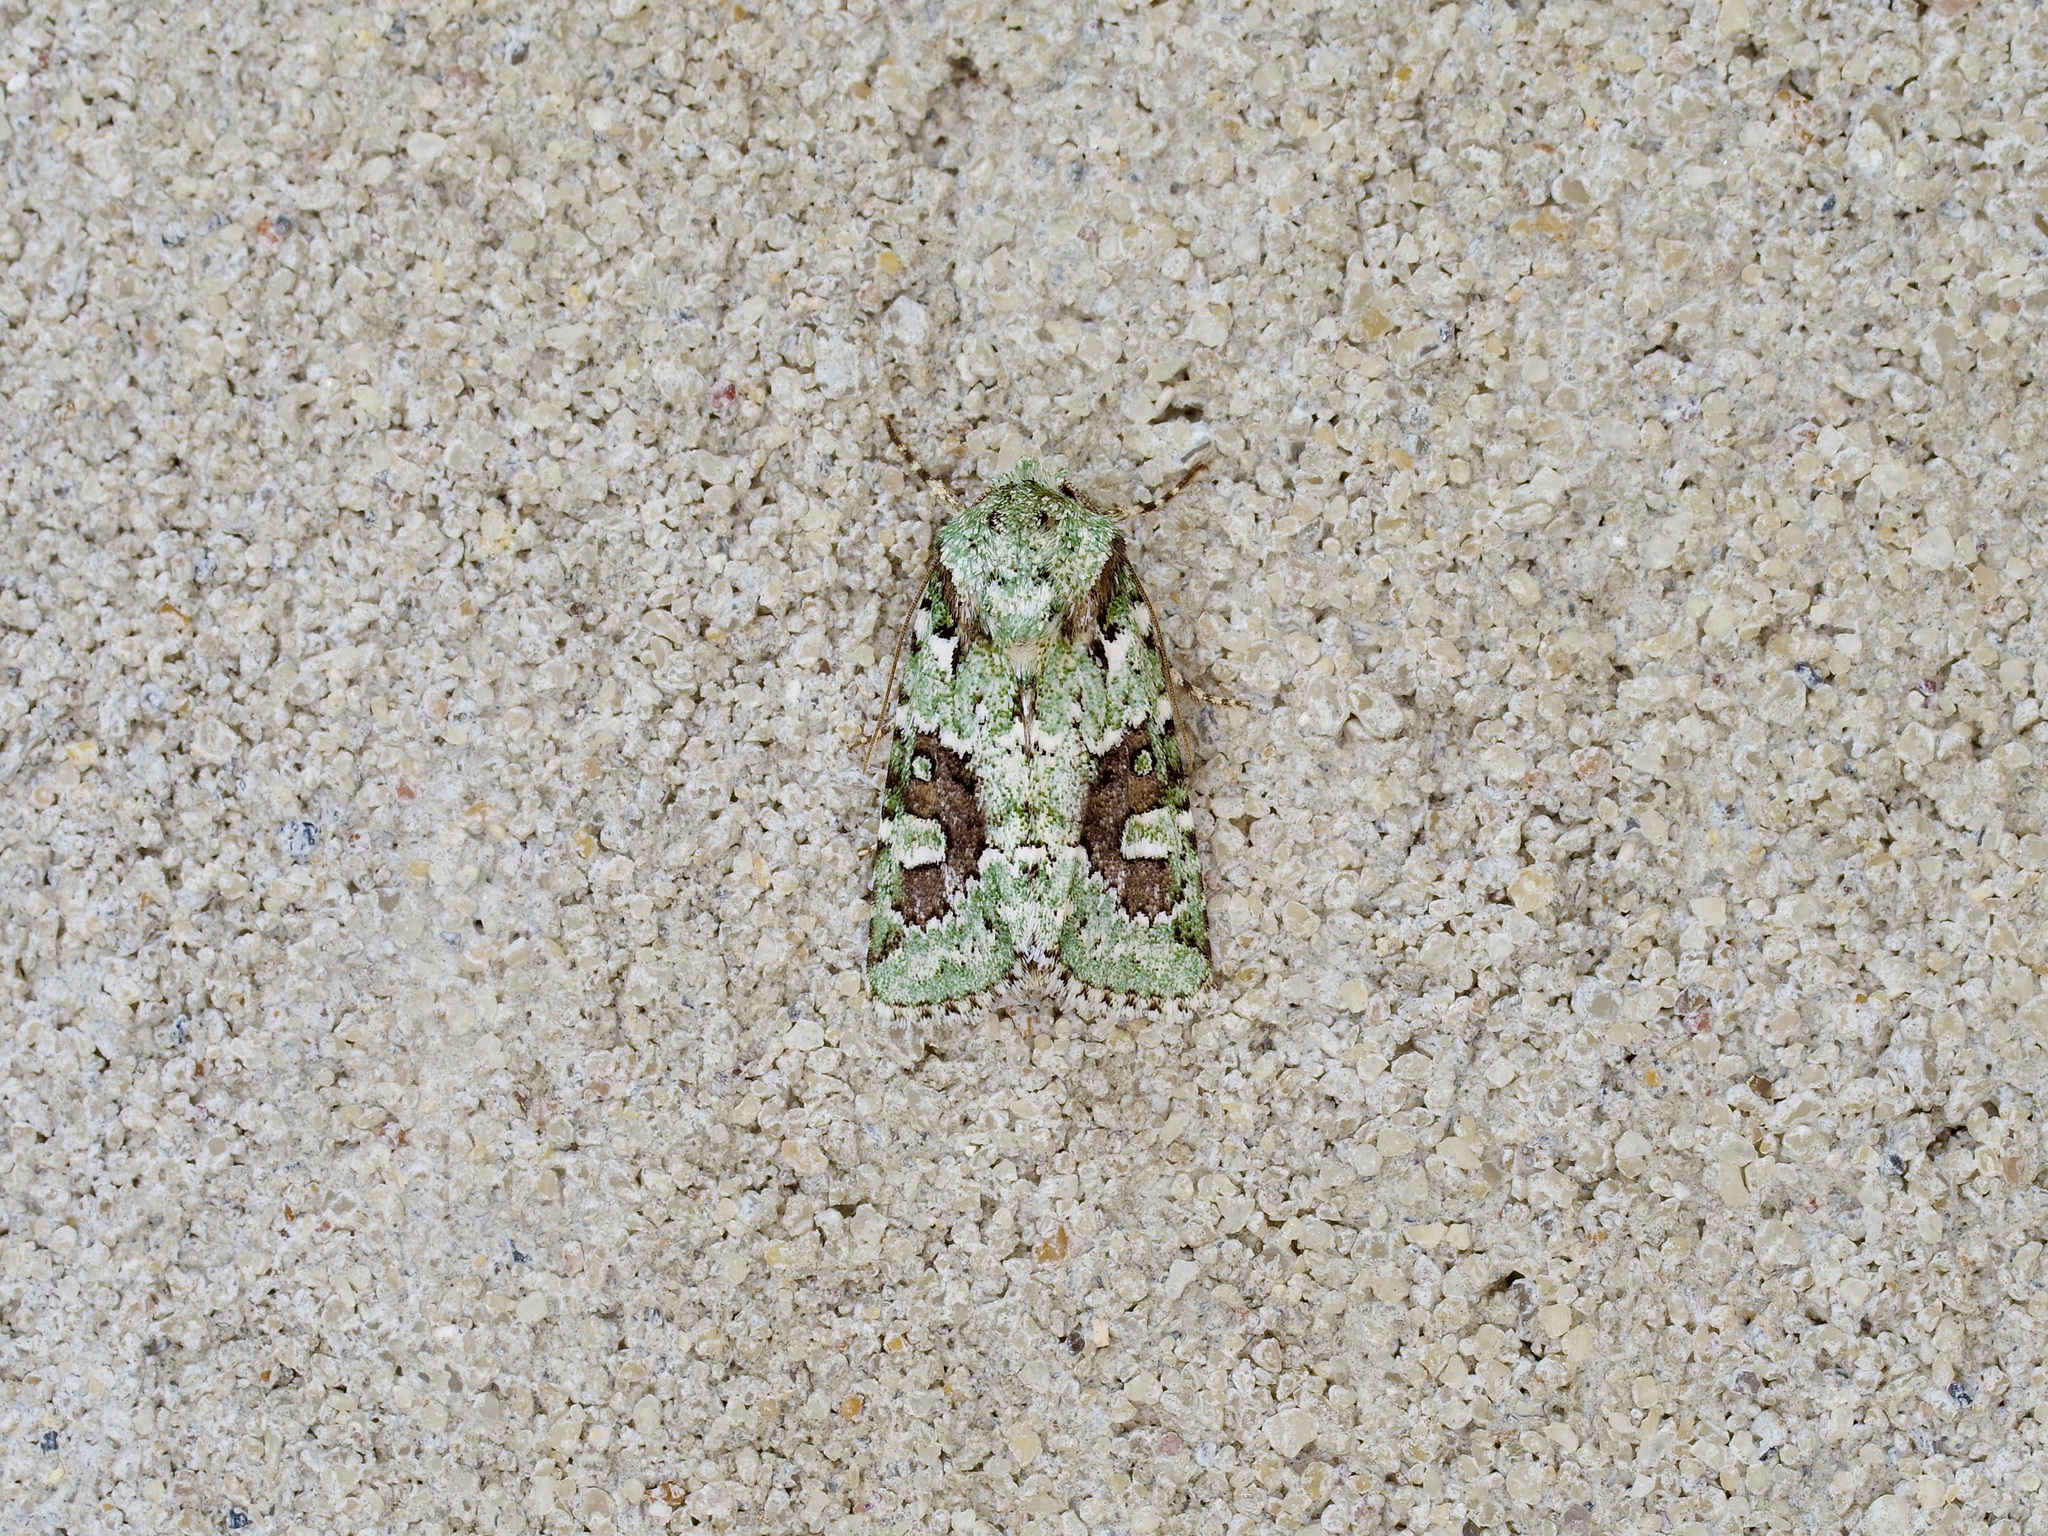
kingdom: Animalia
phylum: Arthropoda
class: Insecta
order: Lepidoptera
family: Noctuidae
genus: Lacinipolia
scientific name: Lacinipolia laudabilis
